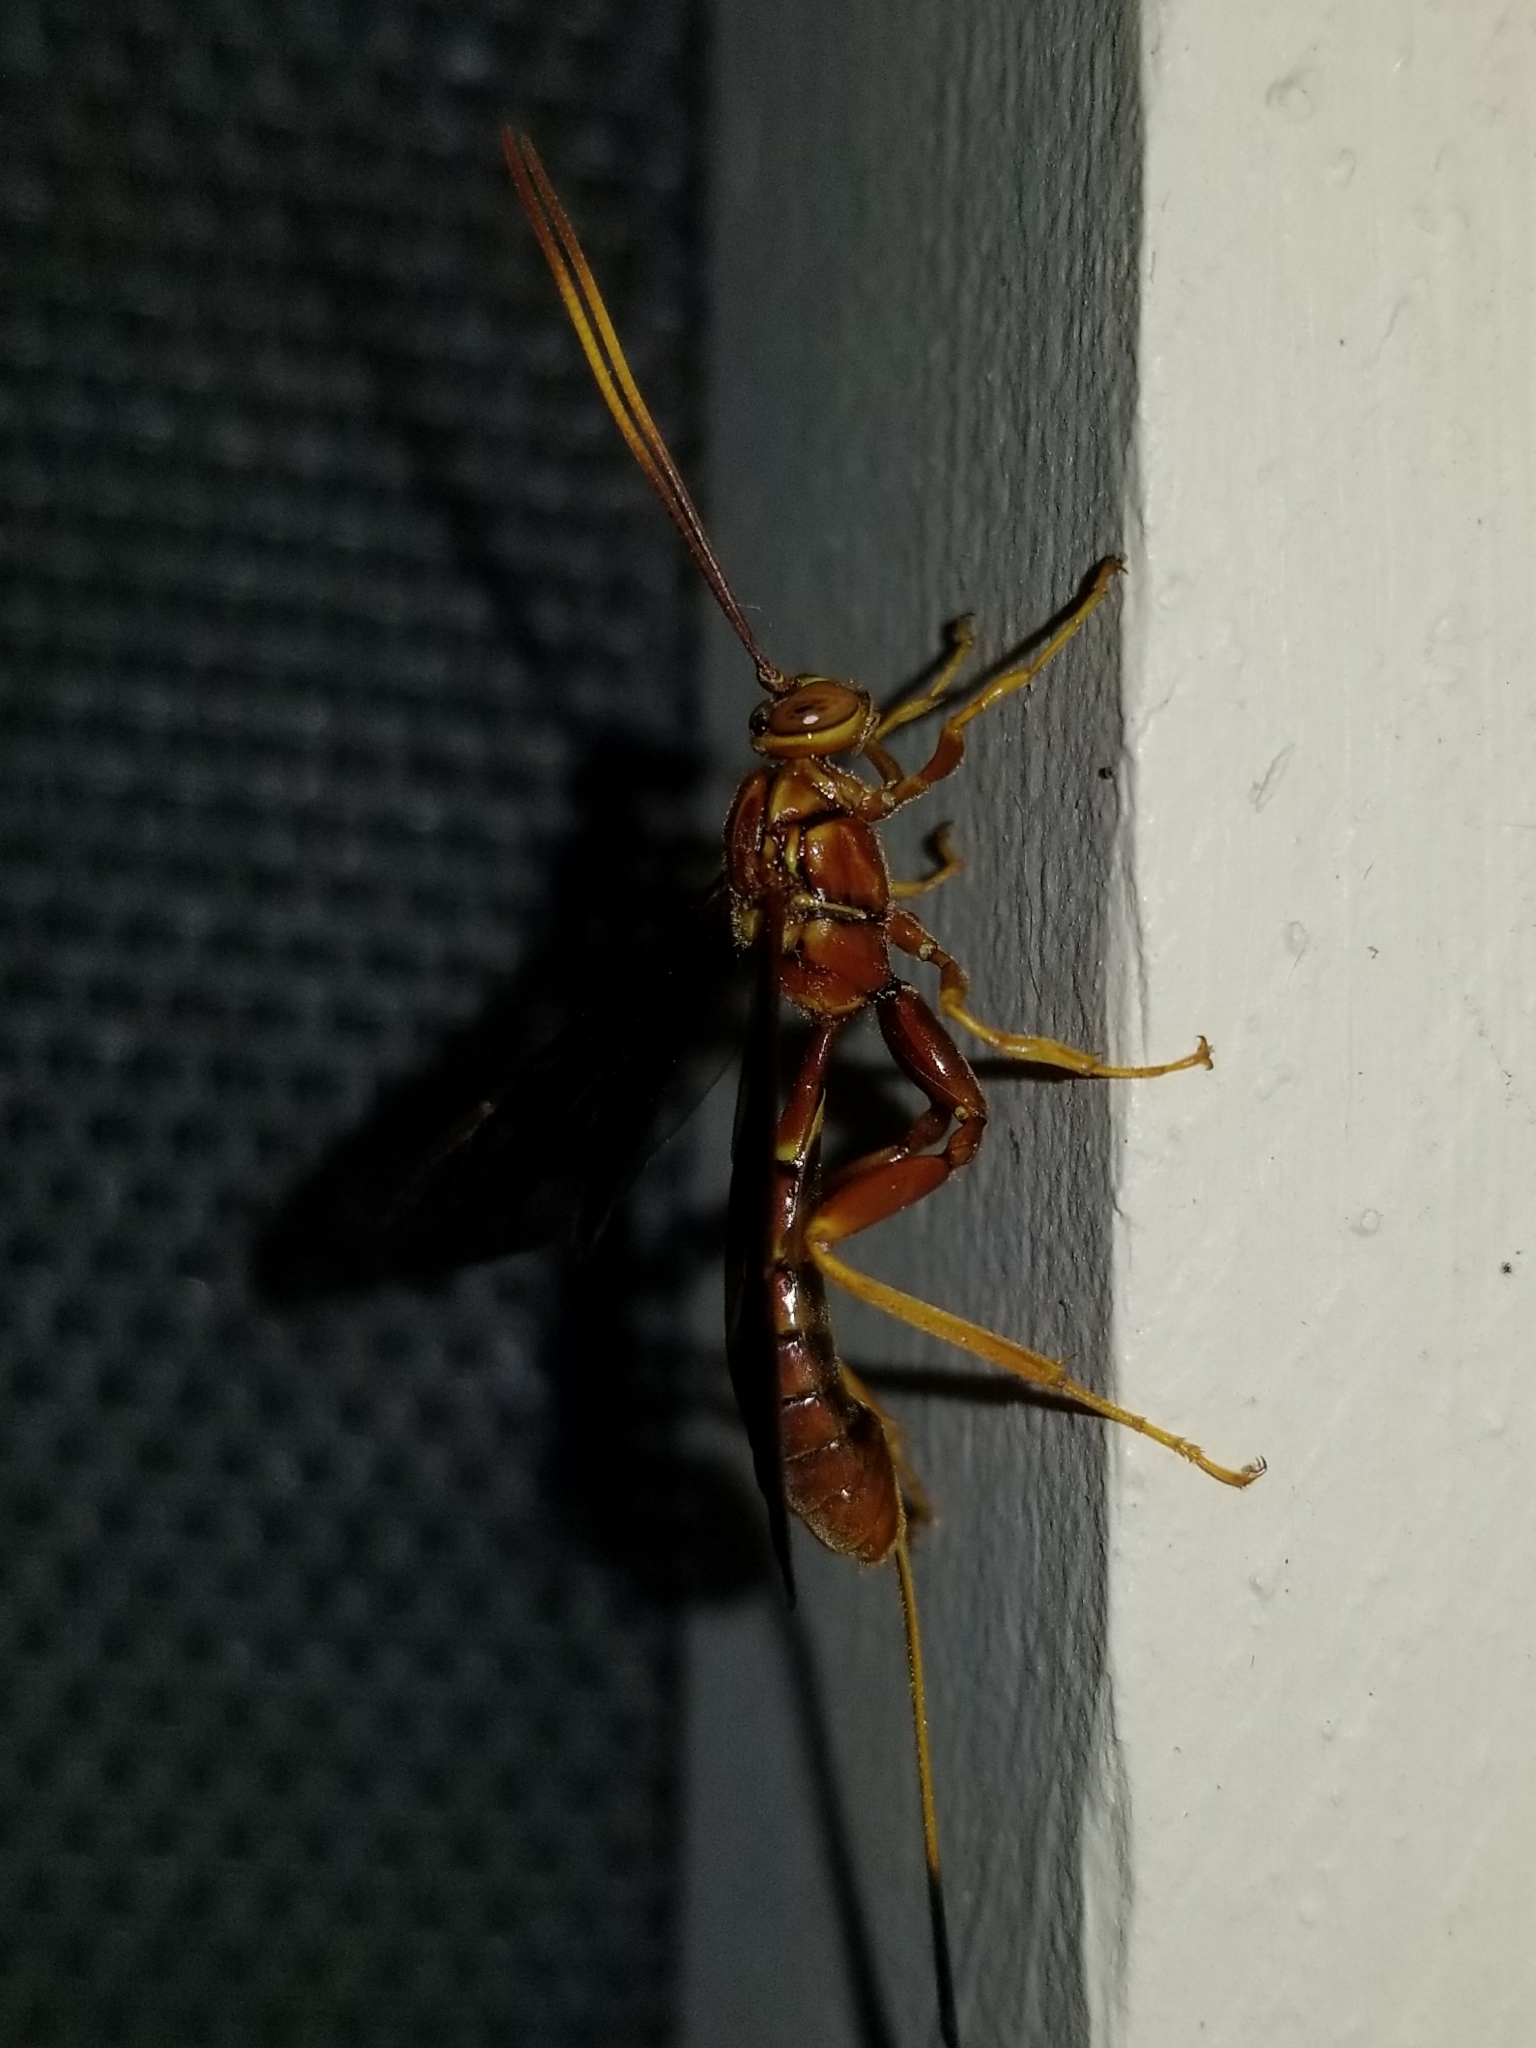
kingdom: Animalia
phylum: Arthropoda
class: Insecta
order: Hymenoptera
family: Ichneumonidae
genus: Labena
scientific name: Labena grallator
